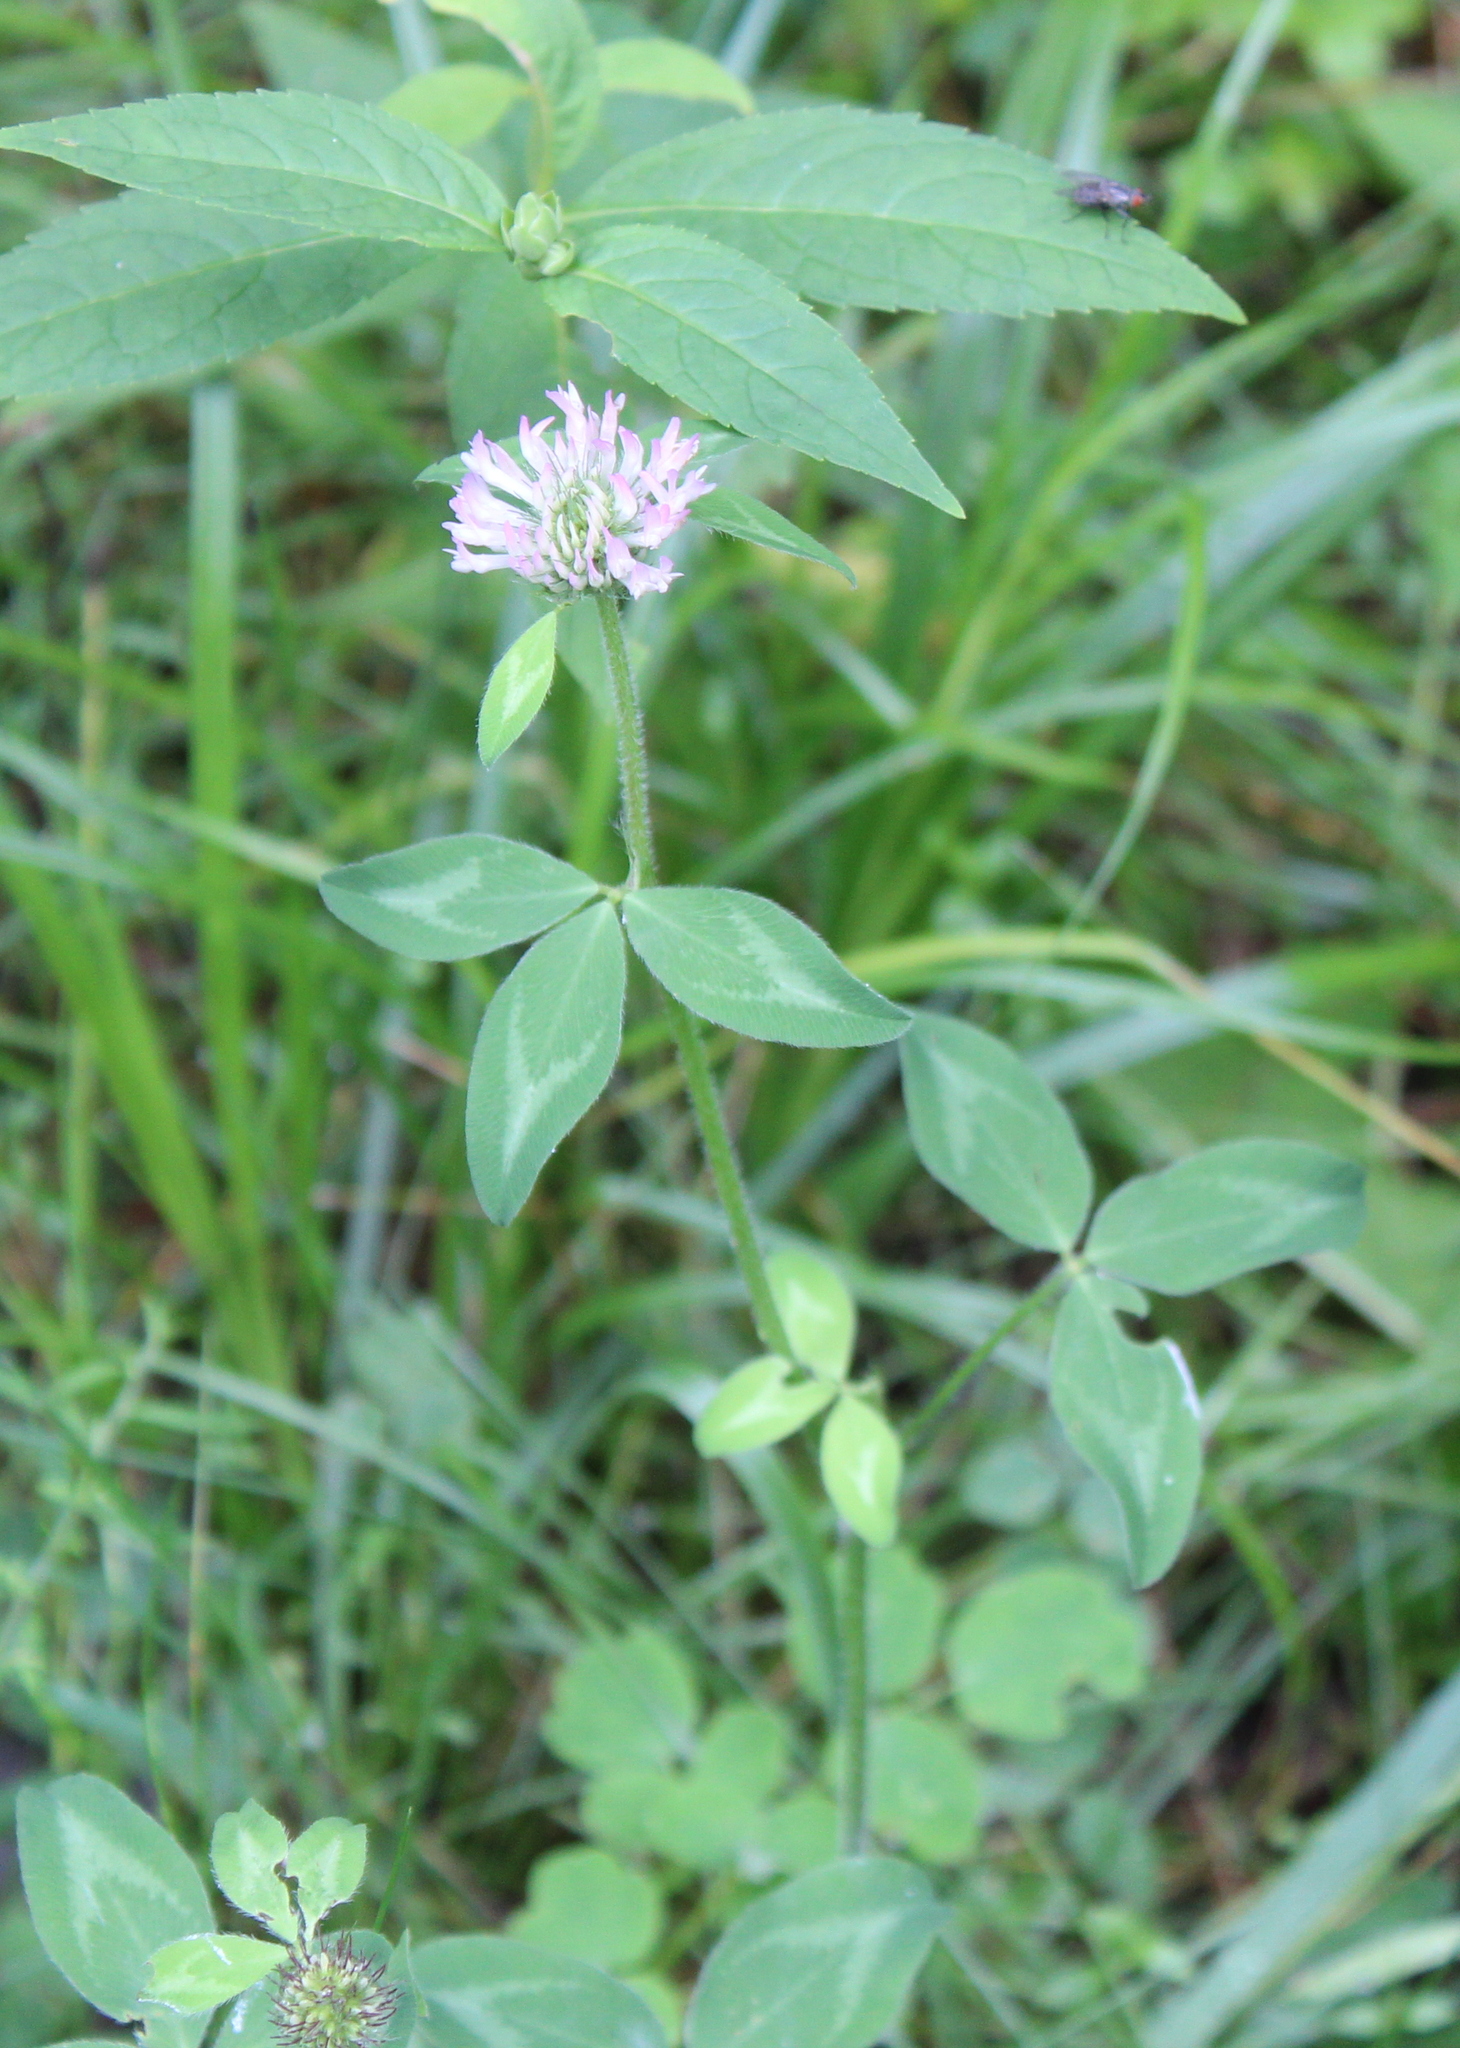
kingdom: Plantae
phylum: Tracheophyta
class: Magnoliopsida
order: Fabales
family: Fabaceae
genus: Trifolium
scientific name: Trifolium pratense
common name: Red clover
